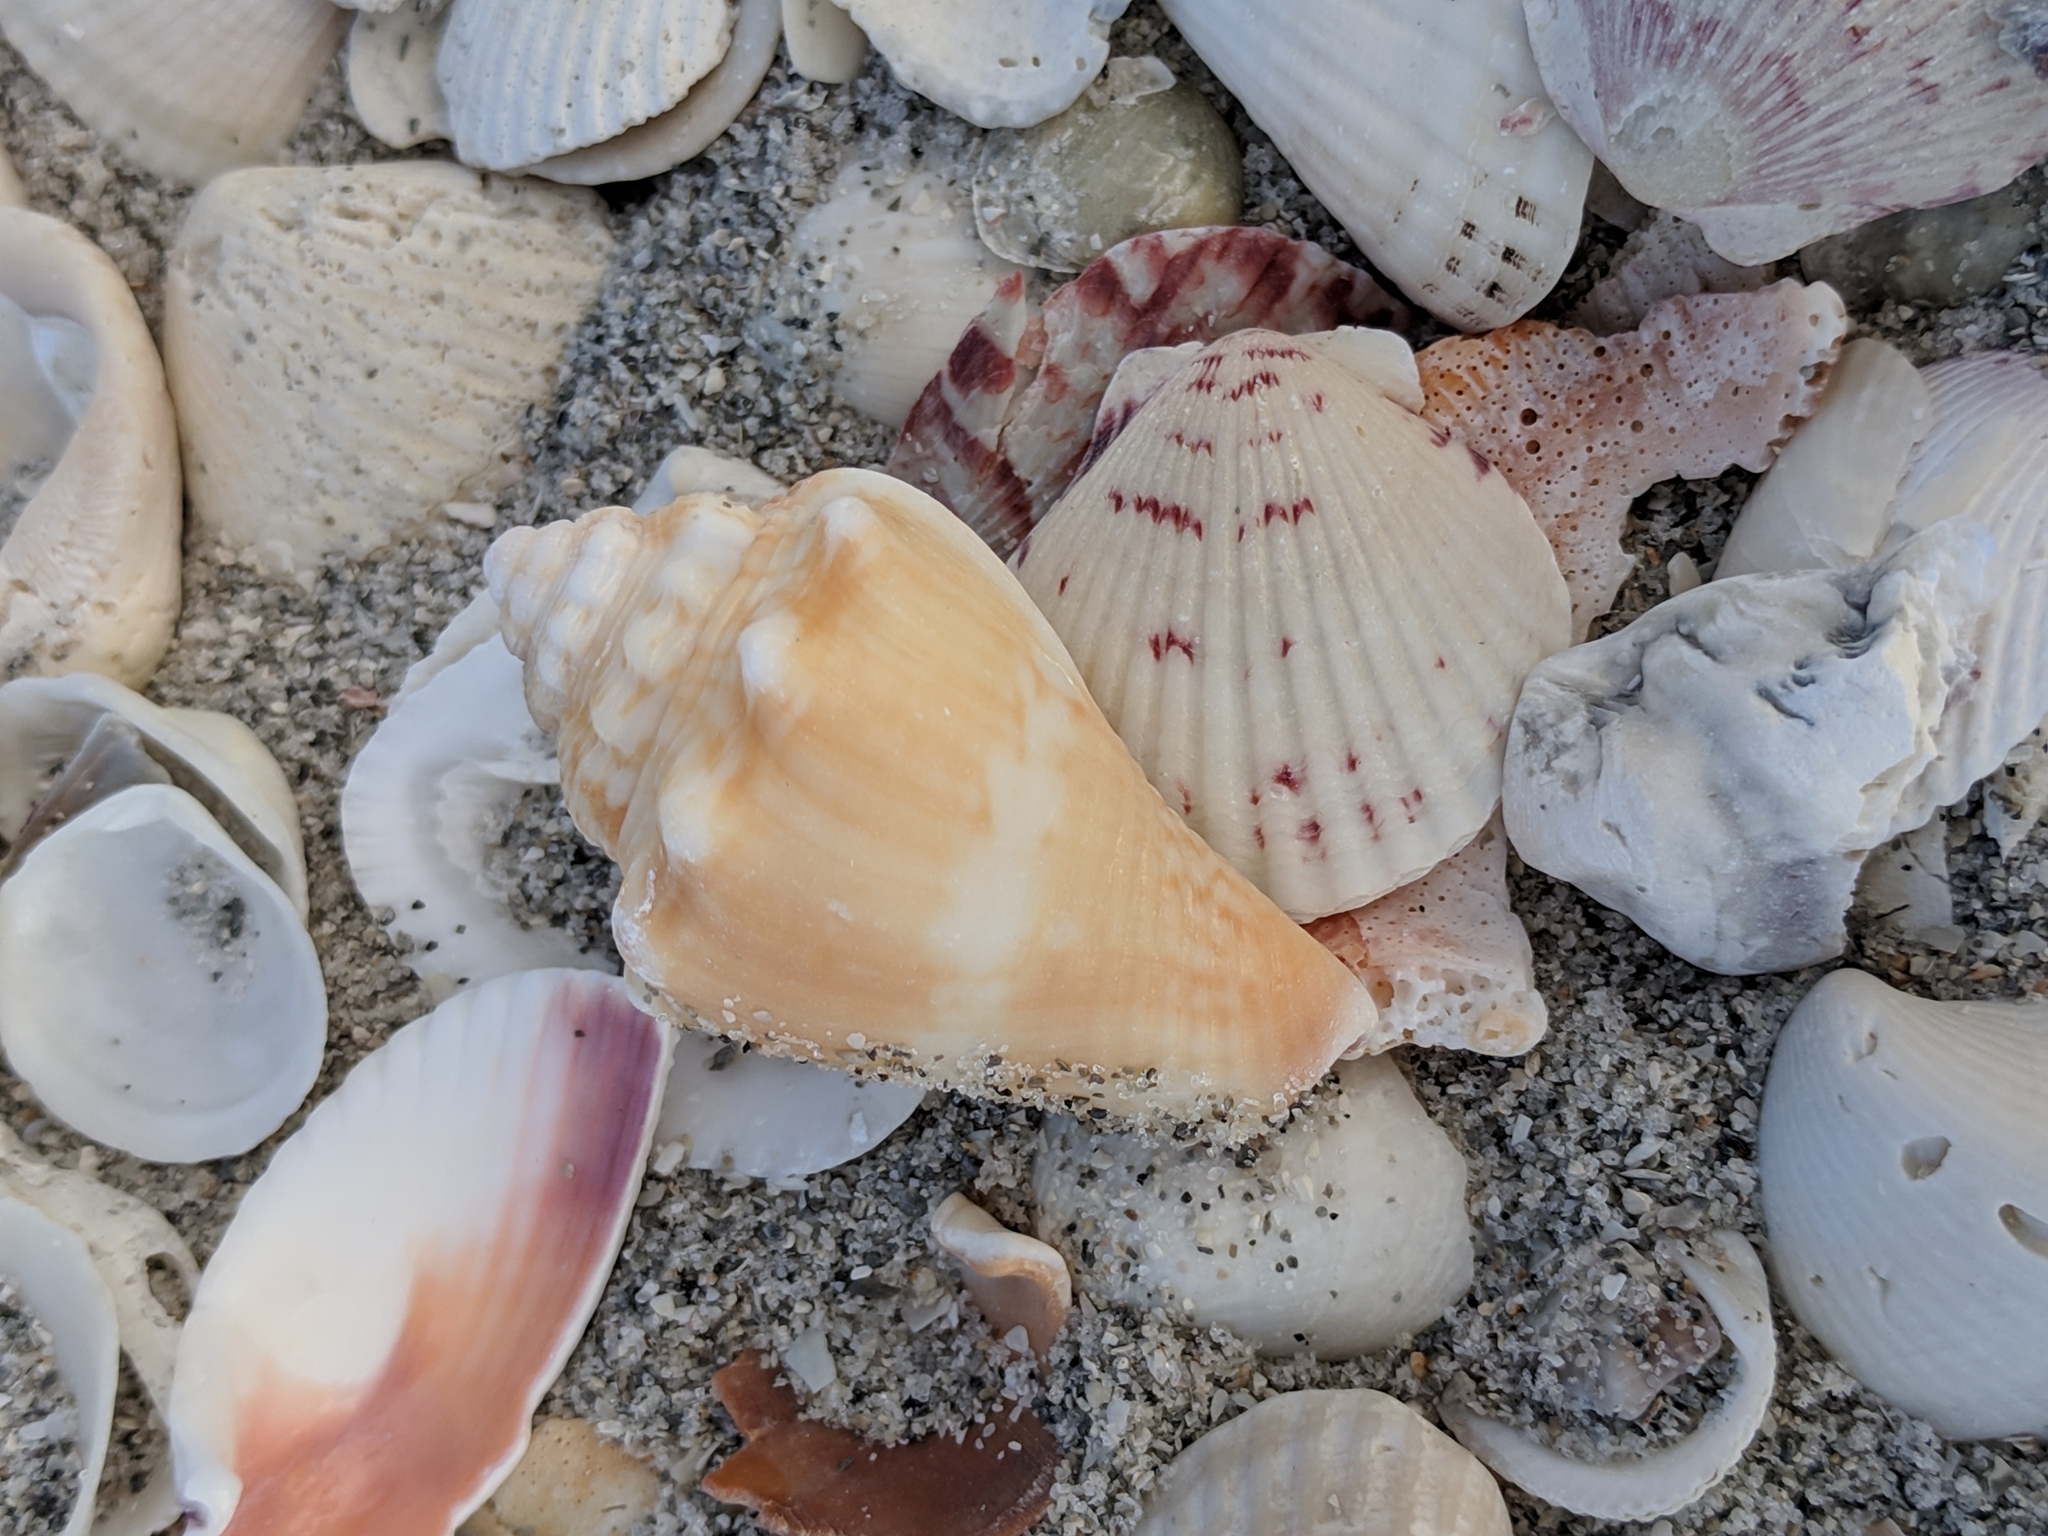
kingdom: Animalia
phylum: Mollusca
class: Gastropoda
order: Littorinimorpha
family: Strombidae
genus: Strombus
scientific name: Strombus alatus
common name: Florida fighting conch
